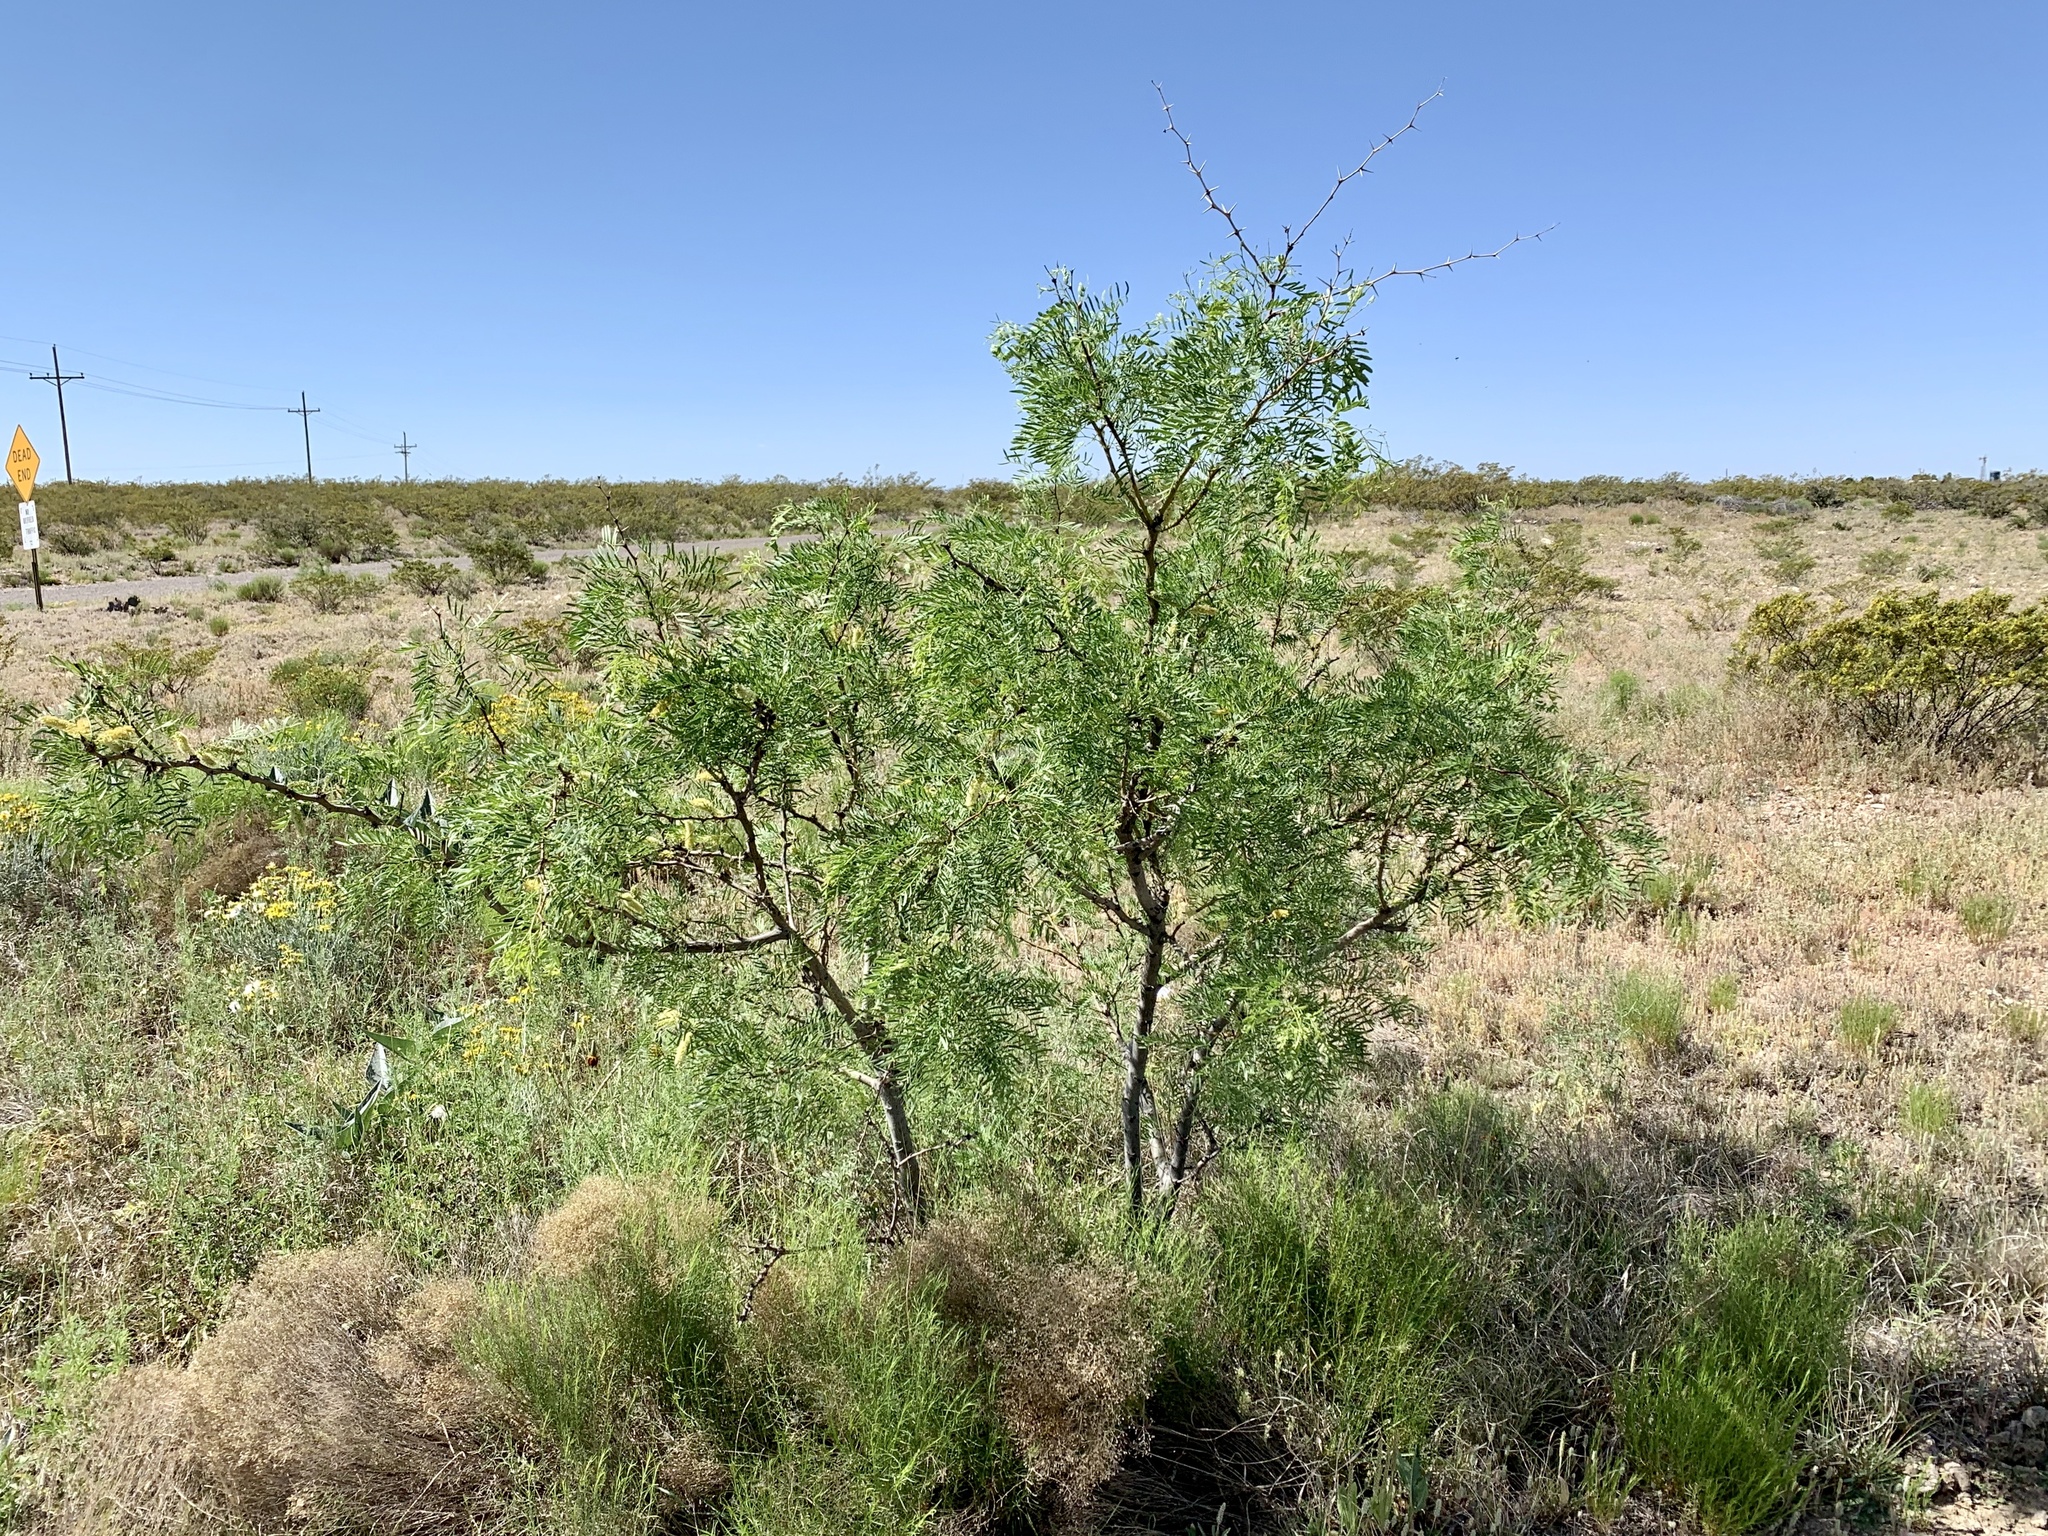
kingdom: Plantae
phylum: Tracheophyta
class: Magnoliopsida
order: Fabales
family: Fabaceae
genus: Prosopis
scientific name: Prosopis glandulosa
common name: Honey mesquite
